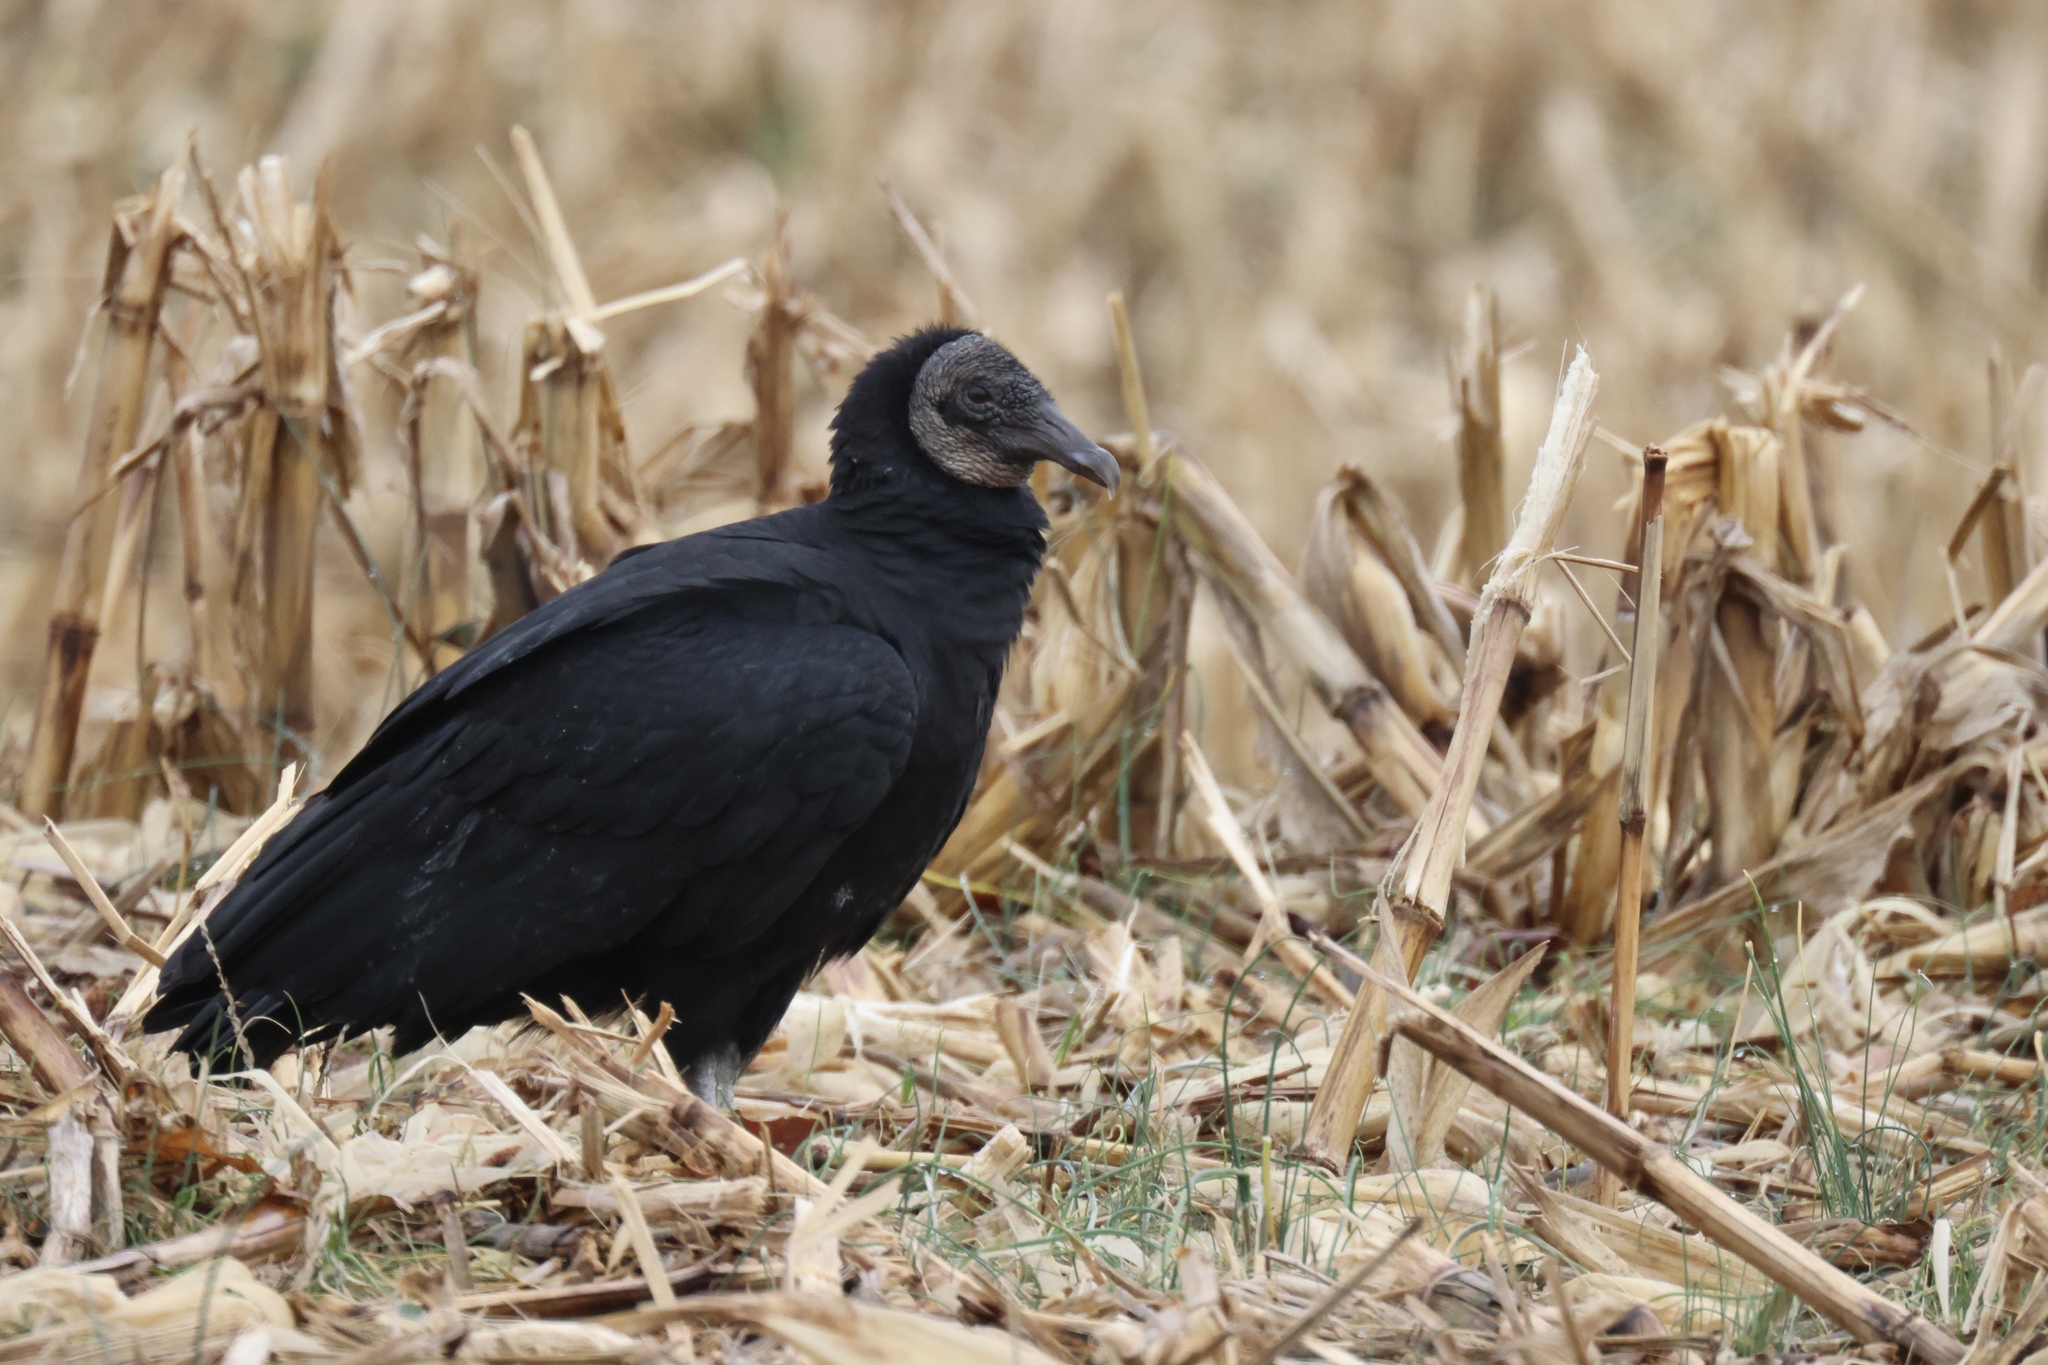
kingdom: Animalia
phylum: Chordata
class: Aves
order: Accipitriformes
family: Cathartidae
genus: Coragyps
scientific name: Coragyps atratus
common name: Black vulture
